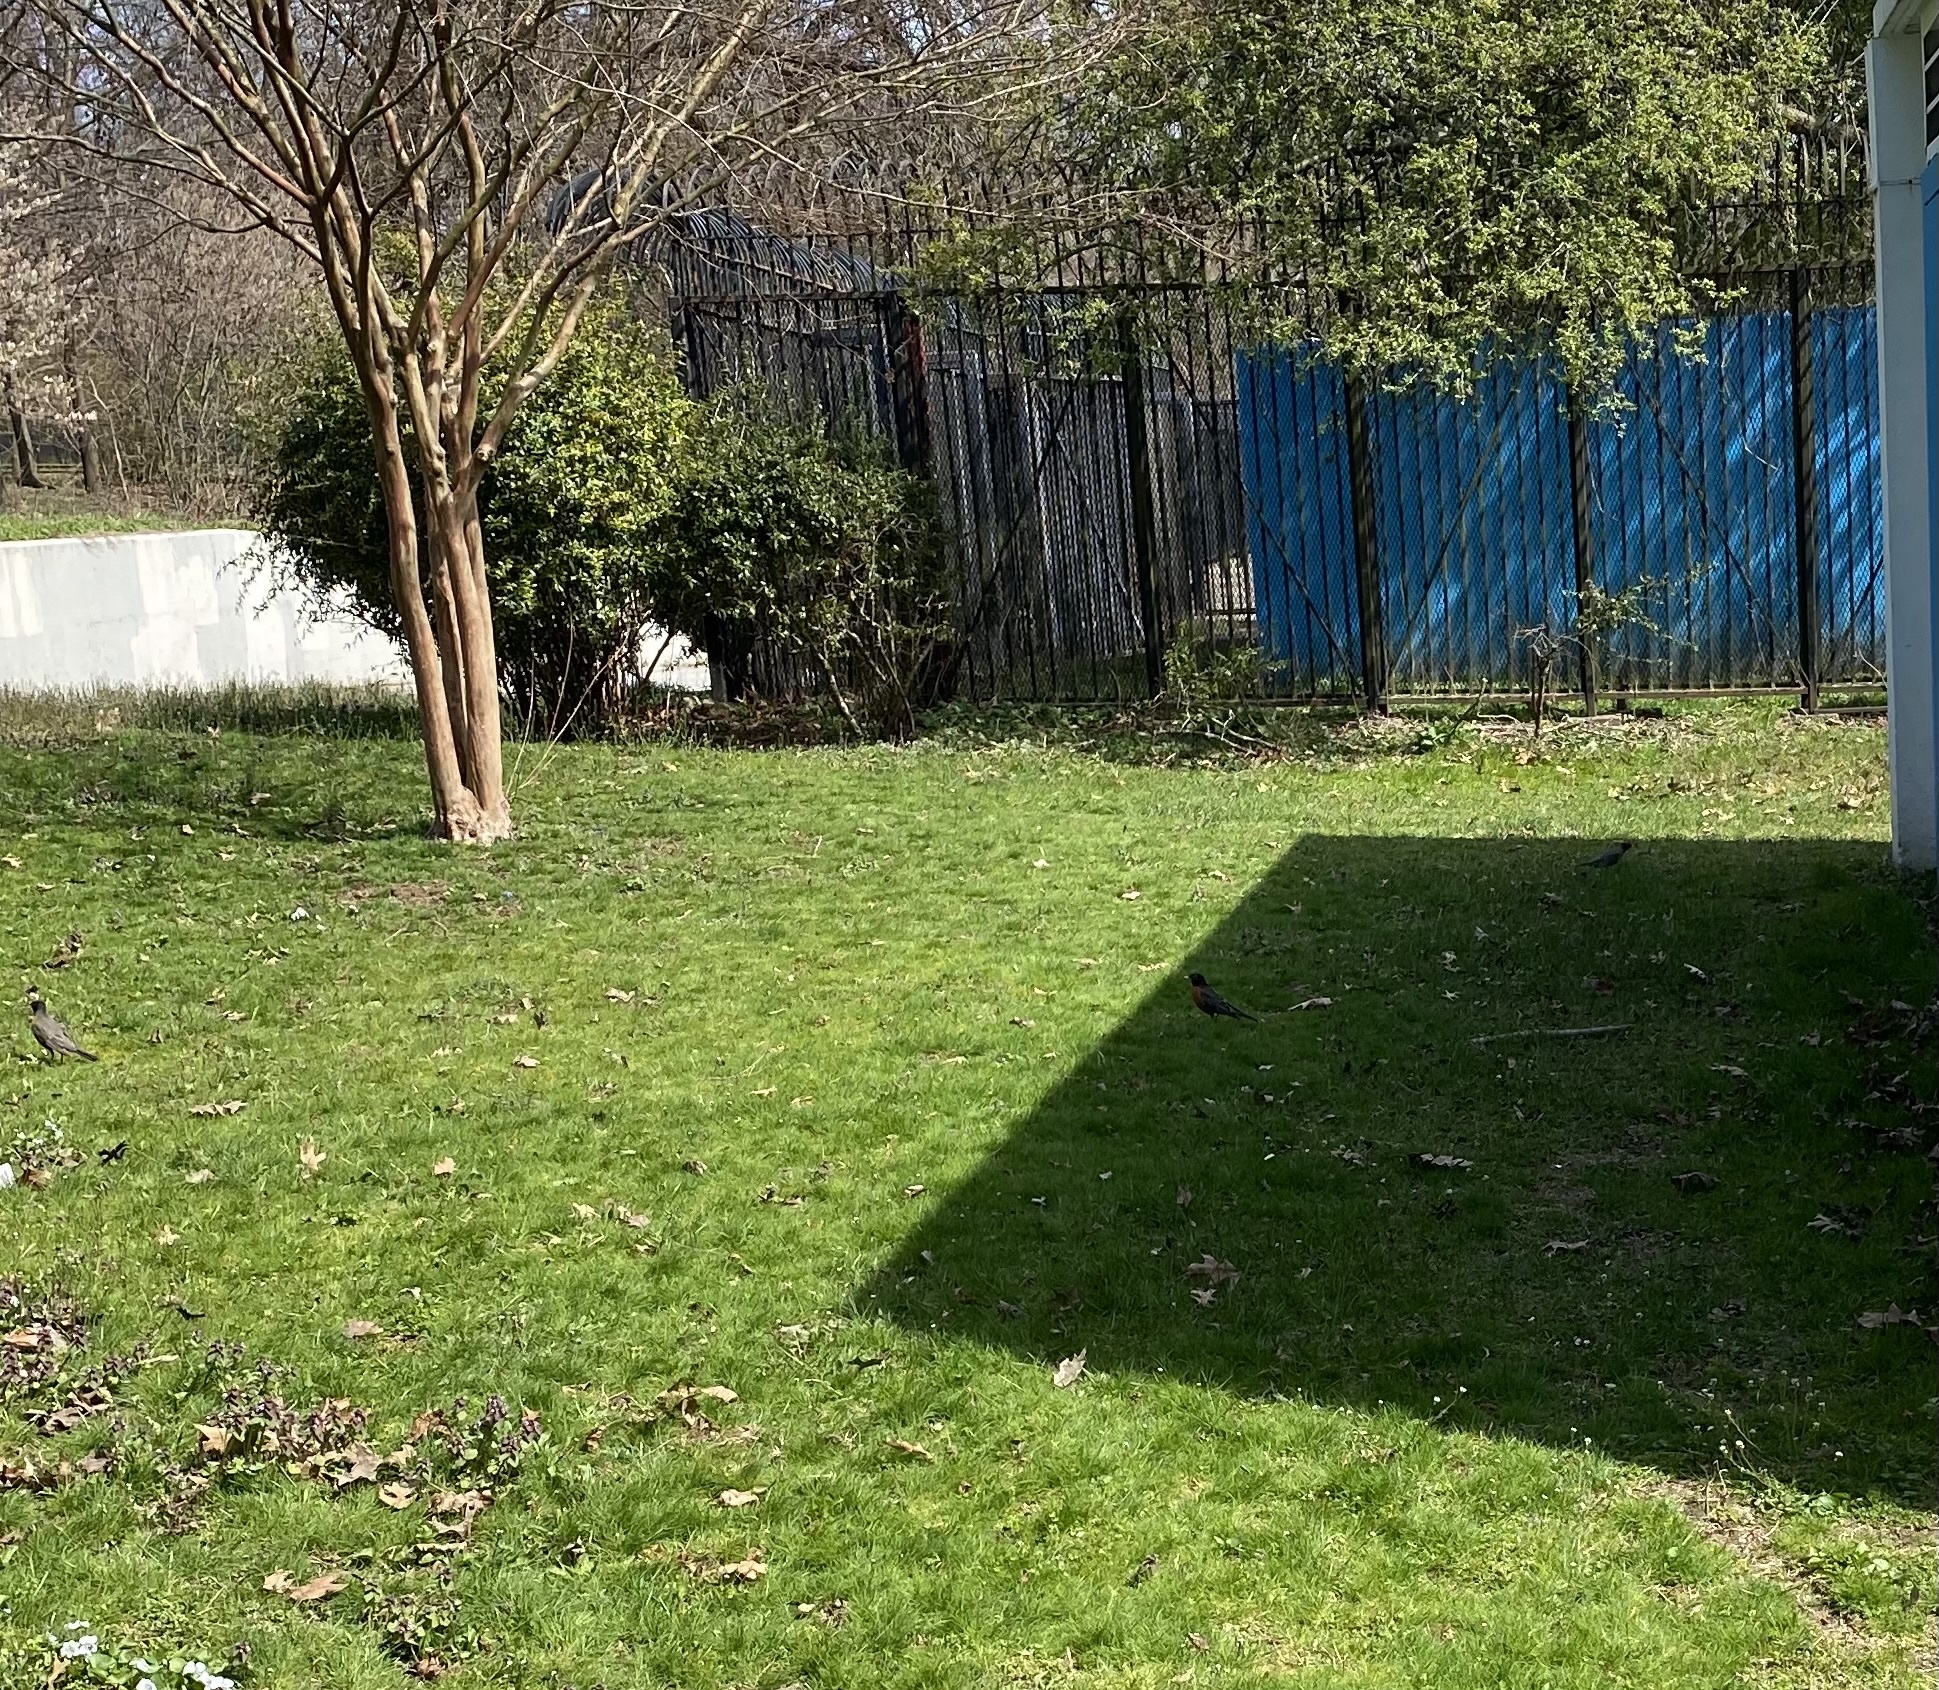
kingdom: Animalia
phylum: Chordata
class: Aves
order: Passeriformes
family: Turdidae
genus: Turdus
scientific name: Turdus migratorius
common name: American robin
